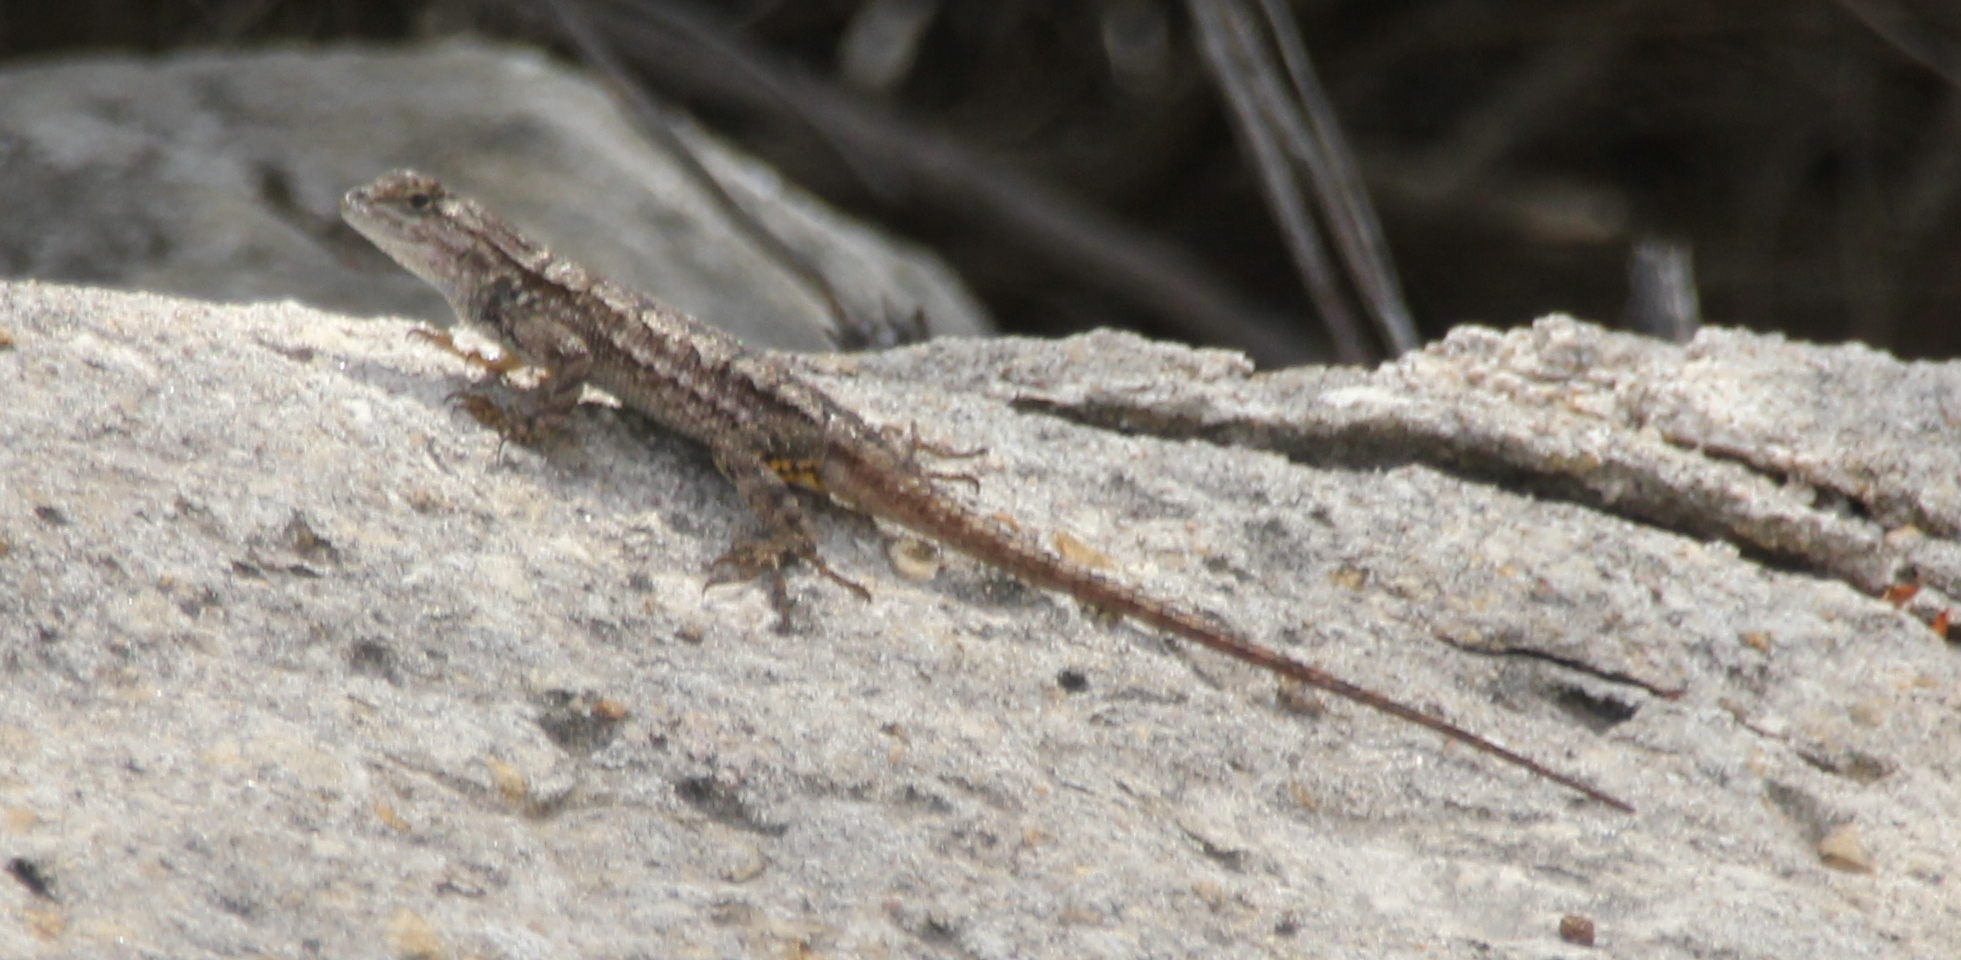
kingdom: Animalia
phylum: Chordata
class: Squamata
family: Phrynosomatidae
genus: Sceloporus
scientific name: Sceloporus occidentalis
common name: Western fence lizard
